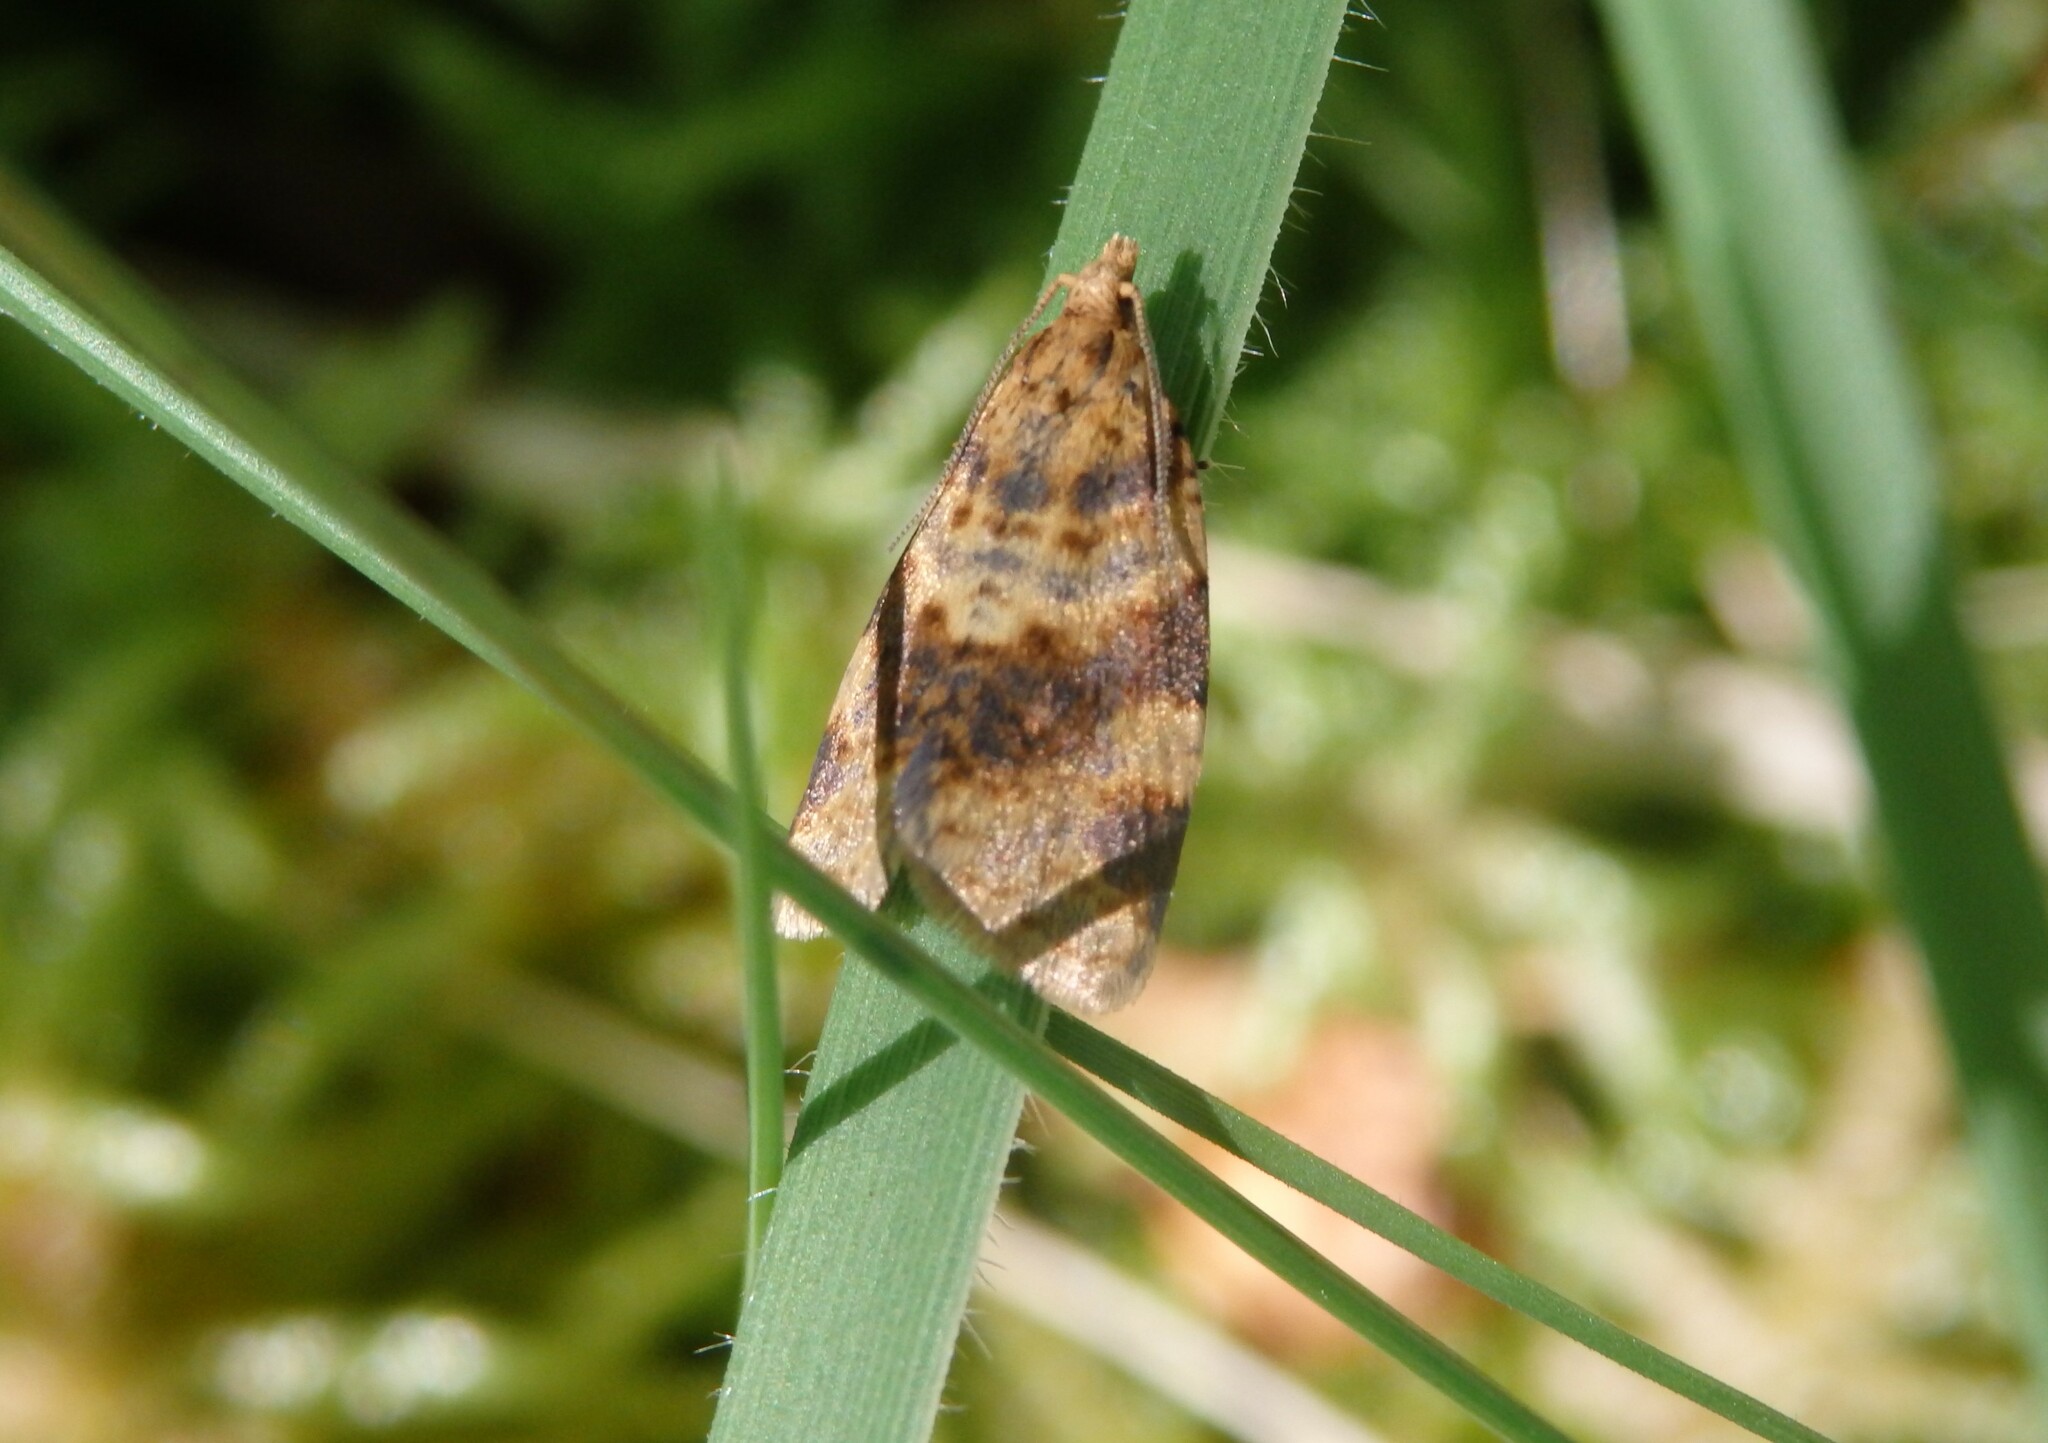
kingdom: Animalia
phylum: Arthropoda
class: Insecta
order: Lepidoptera
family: Tortricidae
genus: Epagoge
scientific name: Epagoge grotiana
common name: Brown-barred twist
